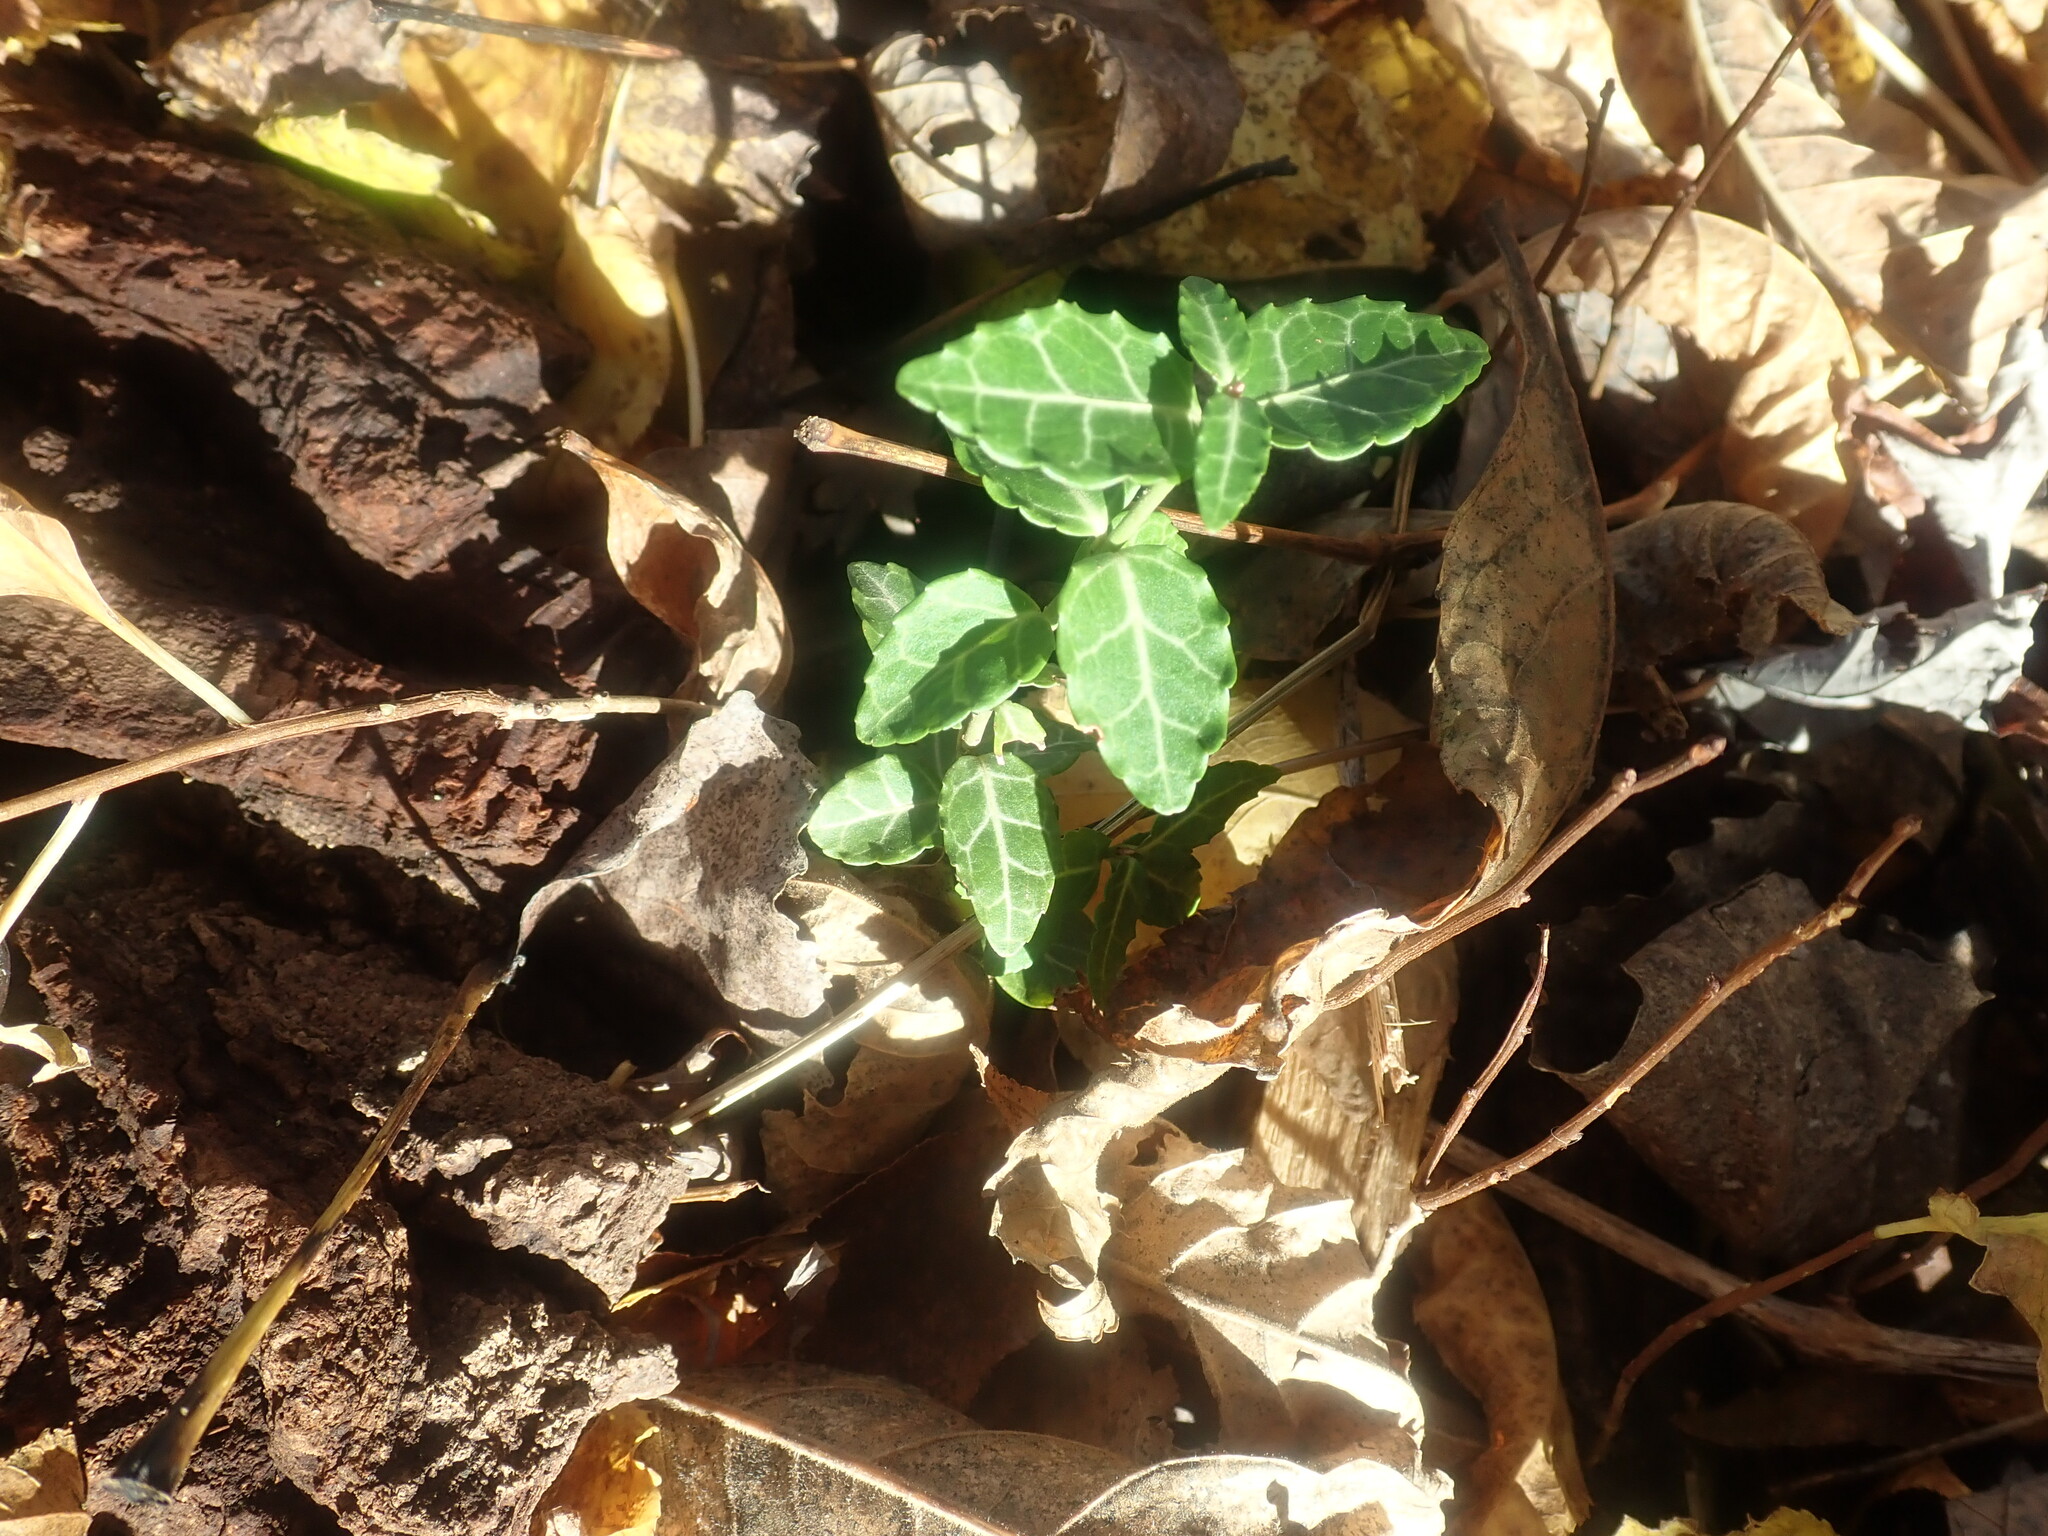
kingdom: Plantae
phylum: Tracheophyta
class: Magnoliopsida
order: Celastrales
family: Celastraceae
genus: Euonymus
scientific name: Euonymus fortunei
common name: Climbing euonymus
